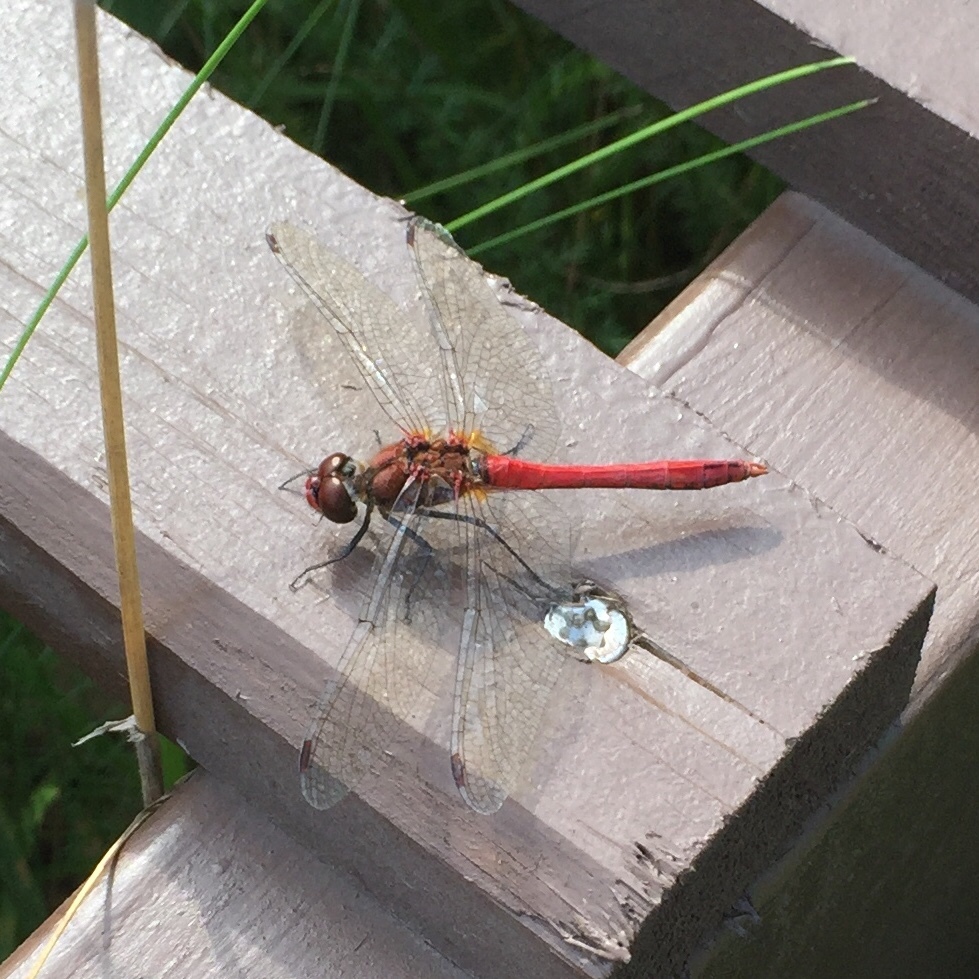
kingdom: Animalia
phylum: Arthropoda
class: Insecta
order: Odonata
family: Libellulidae
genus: Sympetrum
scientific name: Sympetrum sanguineum
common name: Ruddy darter
